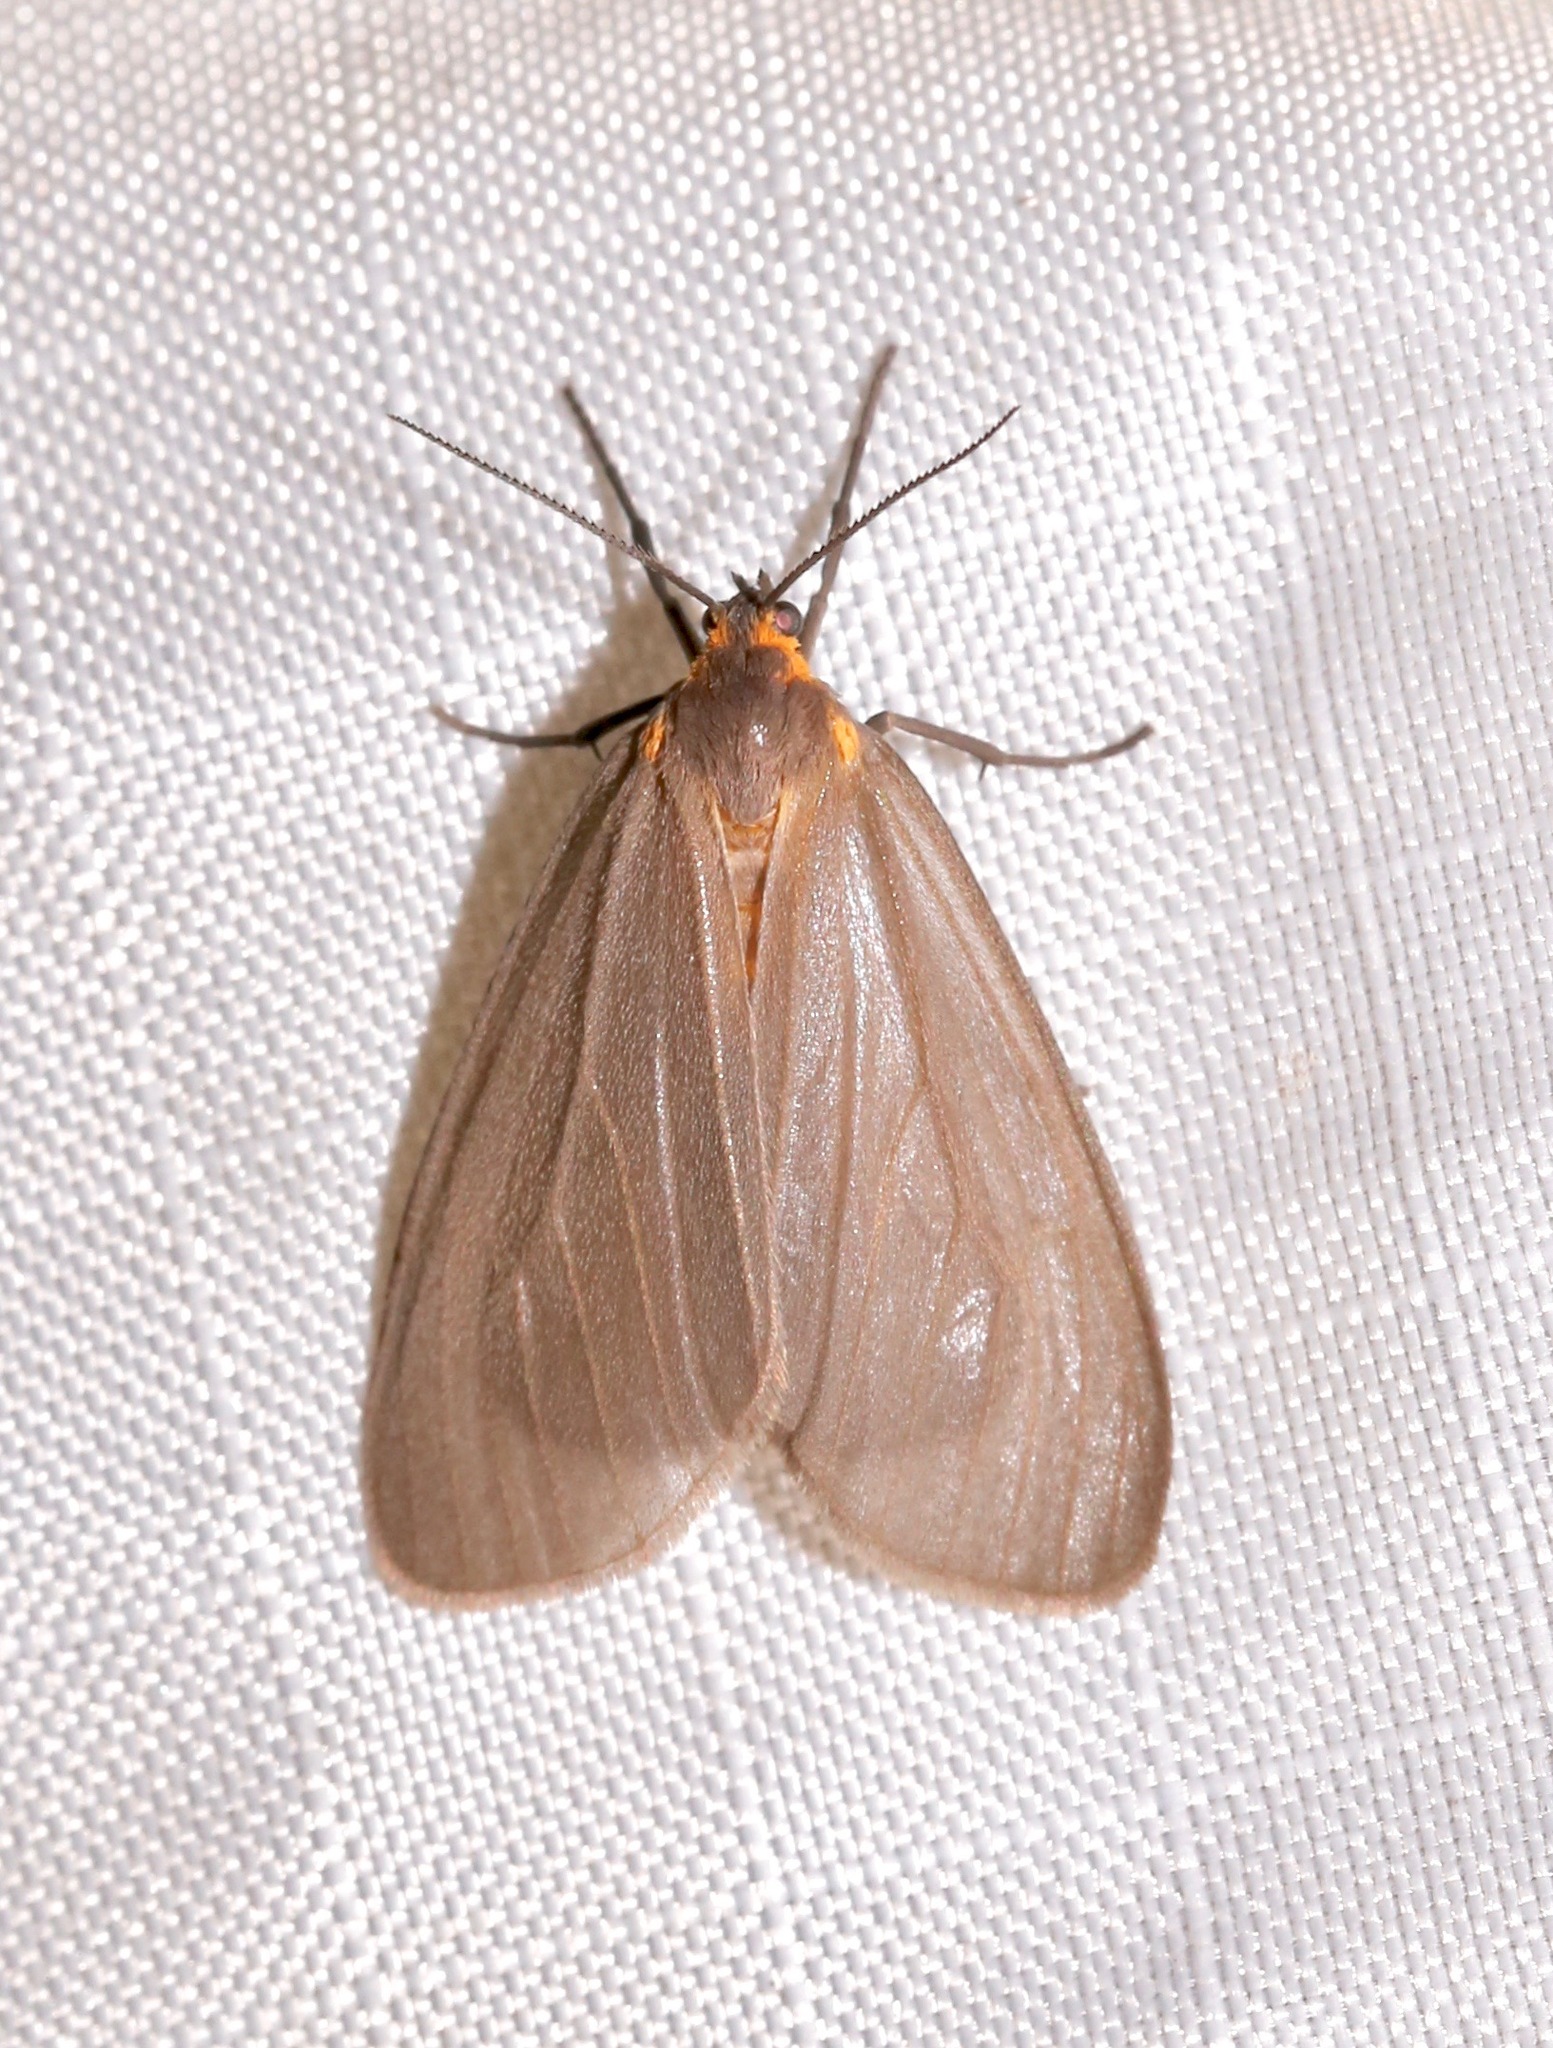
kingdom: Animalia
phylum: Arthropoda
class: Insecta
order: Lepidoptera
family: Erebidae
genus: Pagara
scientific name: Pagara simplex
